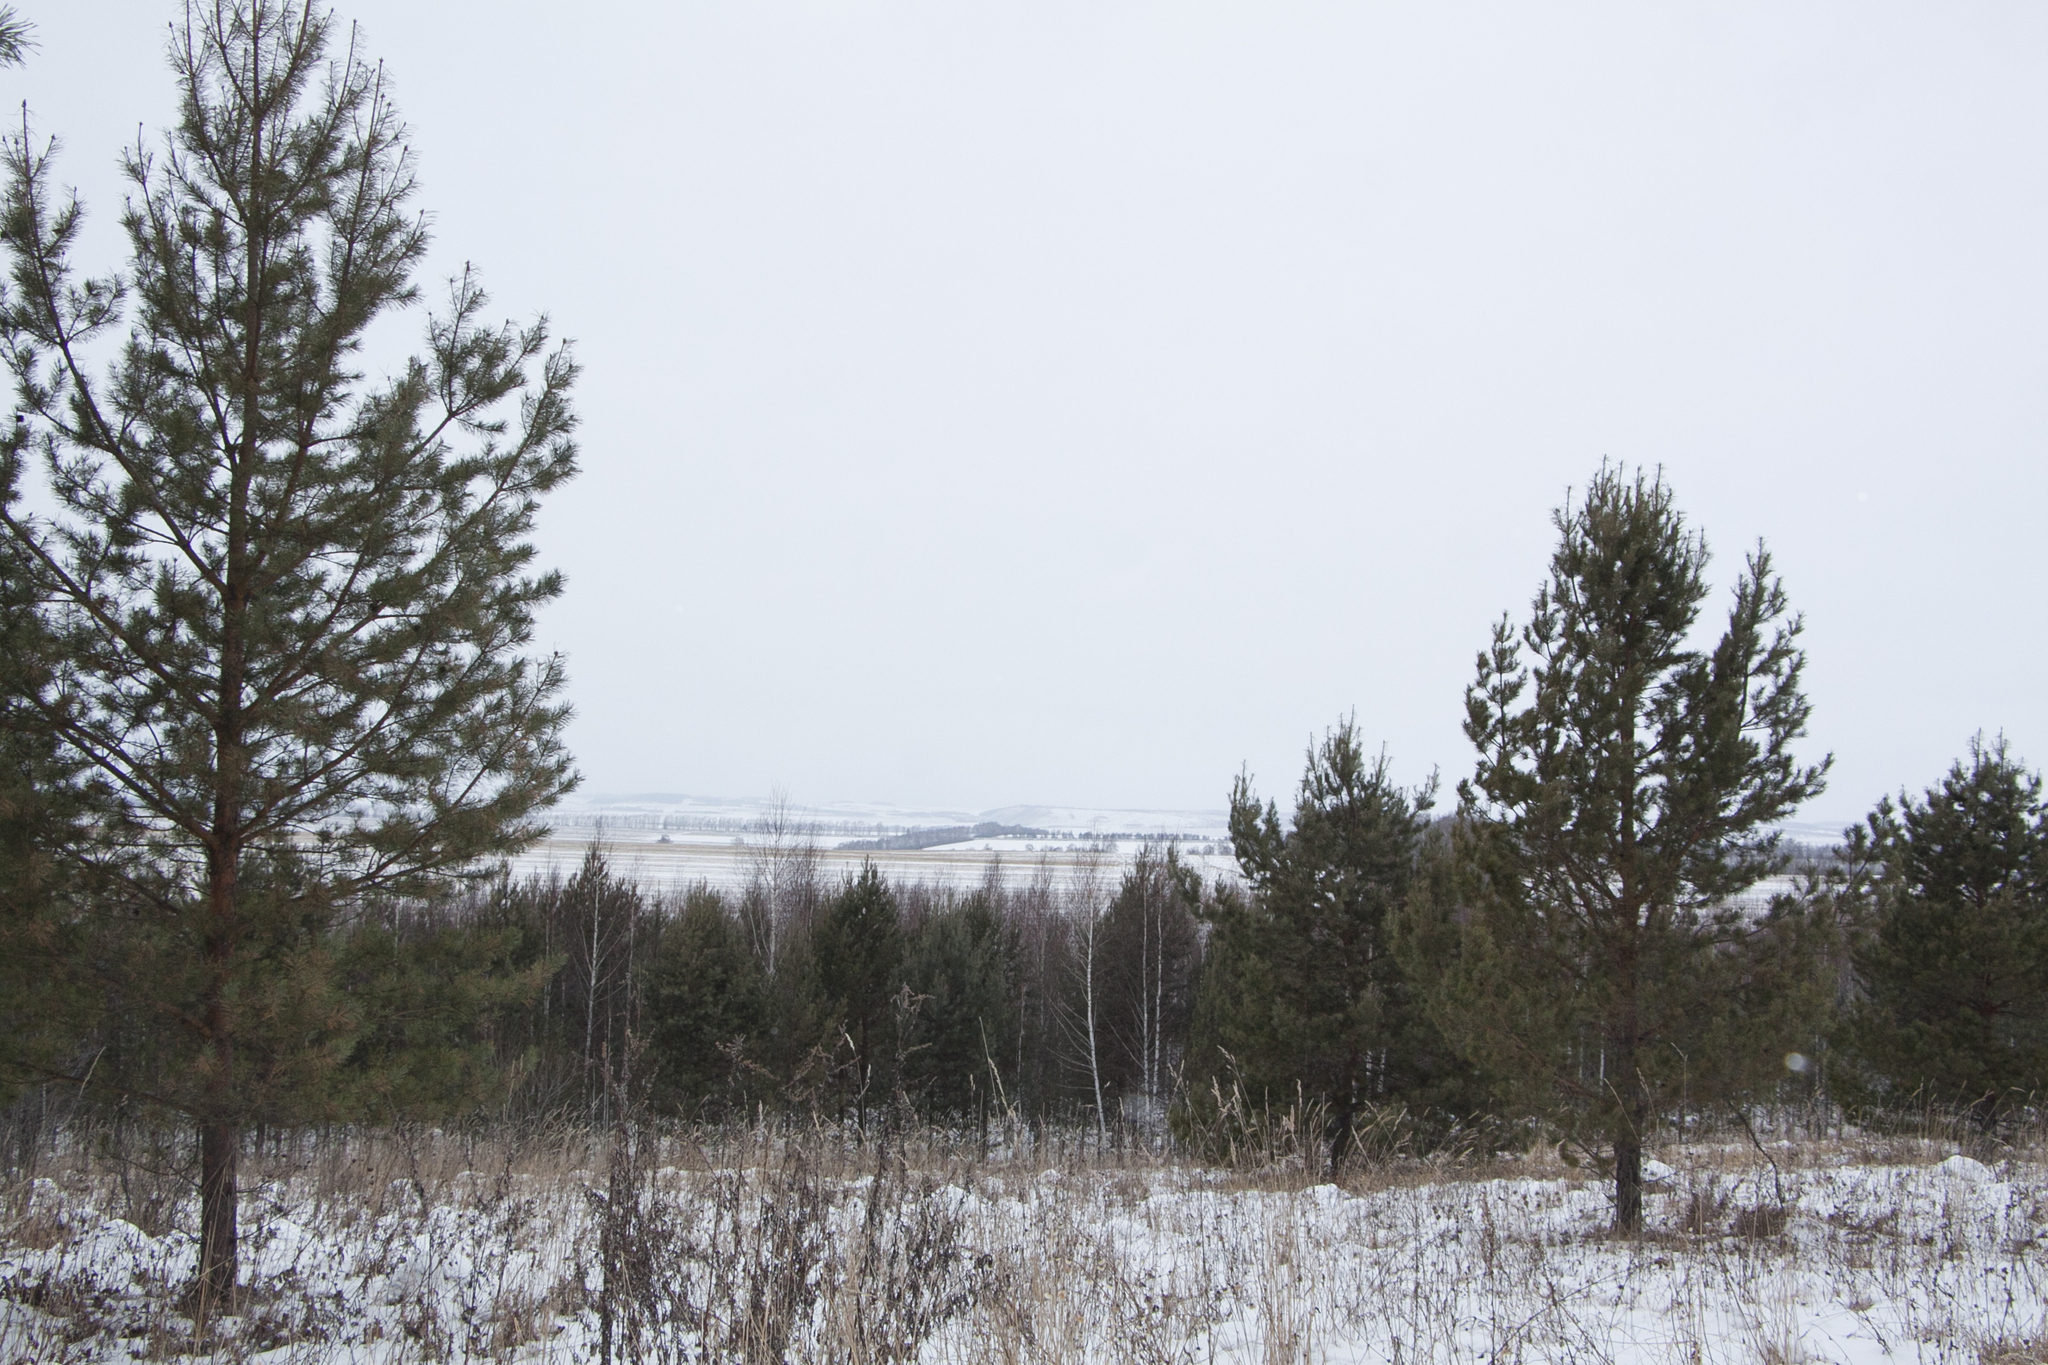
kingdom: Plantae
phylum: Tracheophyta
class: Pinopsida
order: Pinales
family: Pinaceae
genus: Pinus
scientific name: Pinus sylvestris
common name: Scots pine
